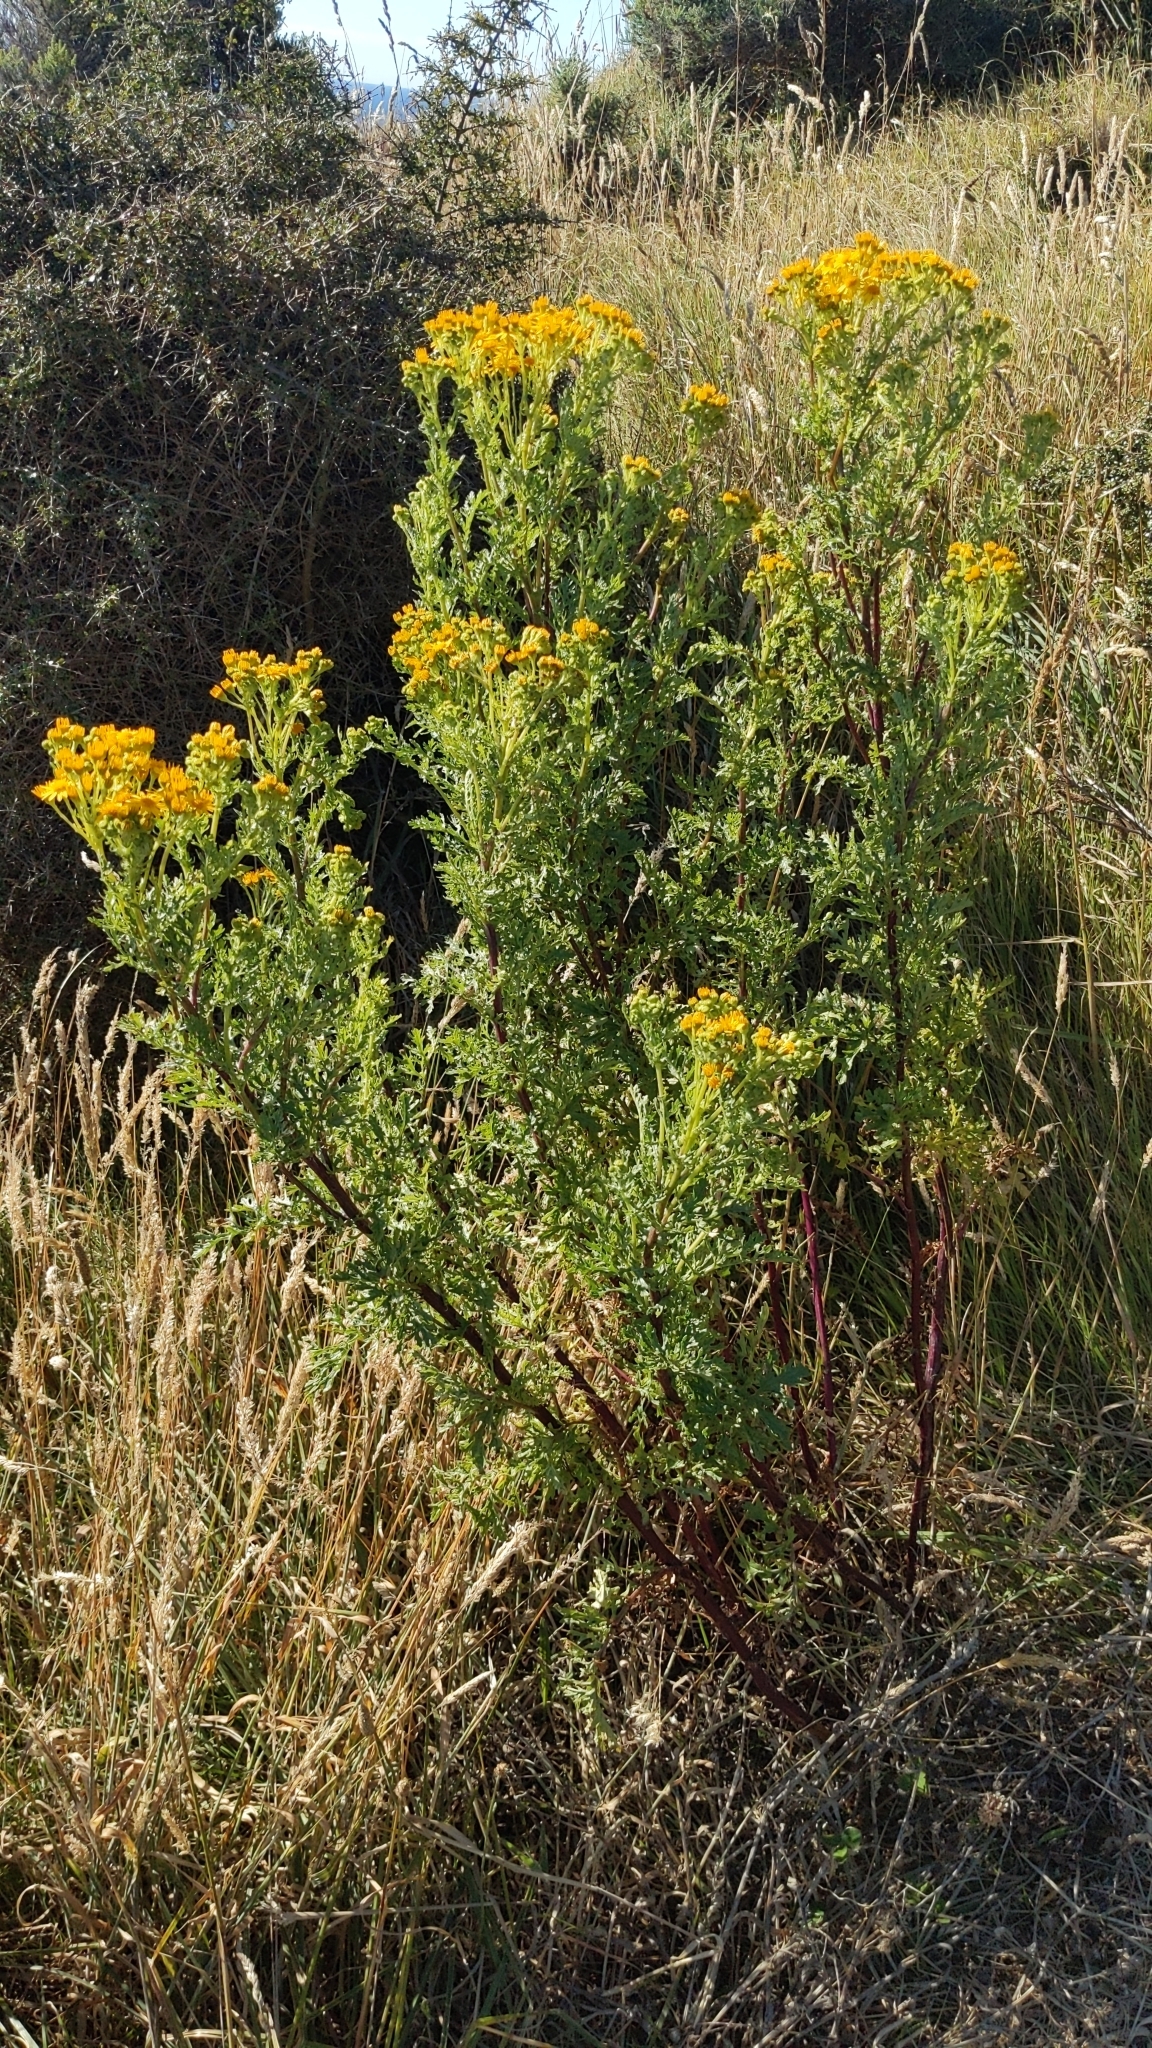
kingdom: Plantae
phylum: Tracheophyta
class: Magnoliopsida
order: Asterales
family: Asteraceae
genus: Jacobaea
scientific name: Jacobaea vulgaris
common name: Stinking willie
